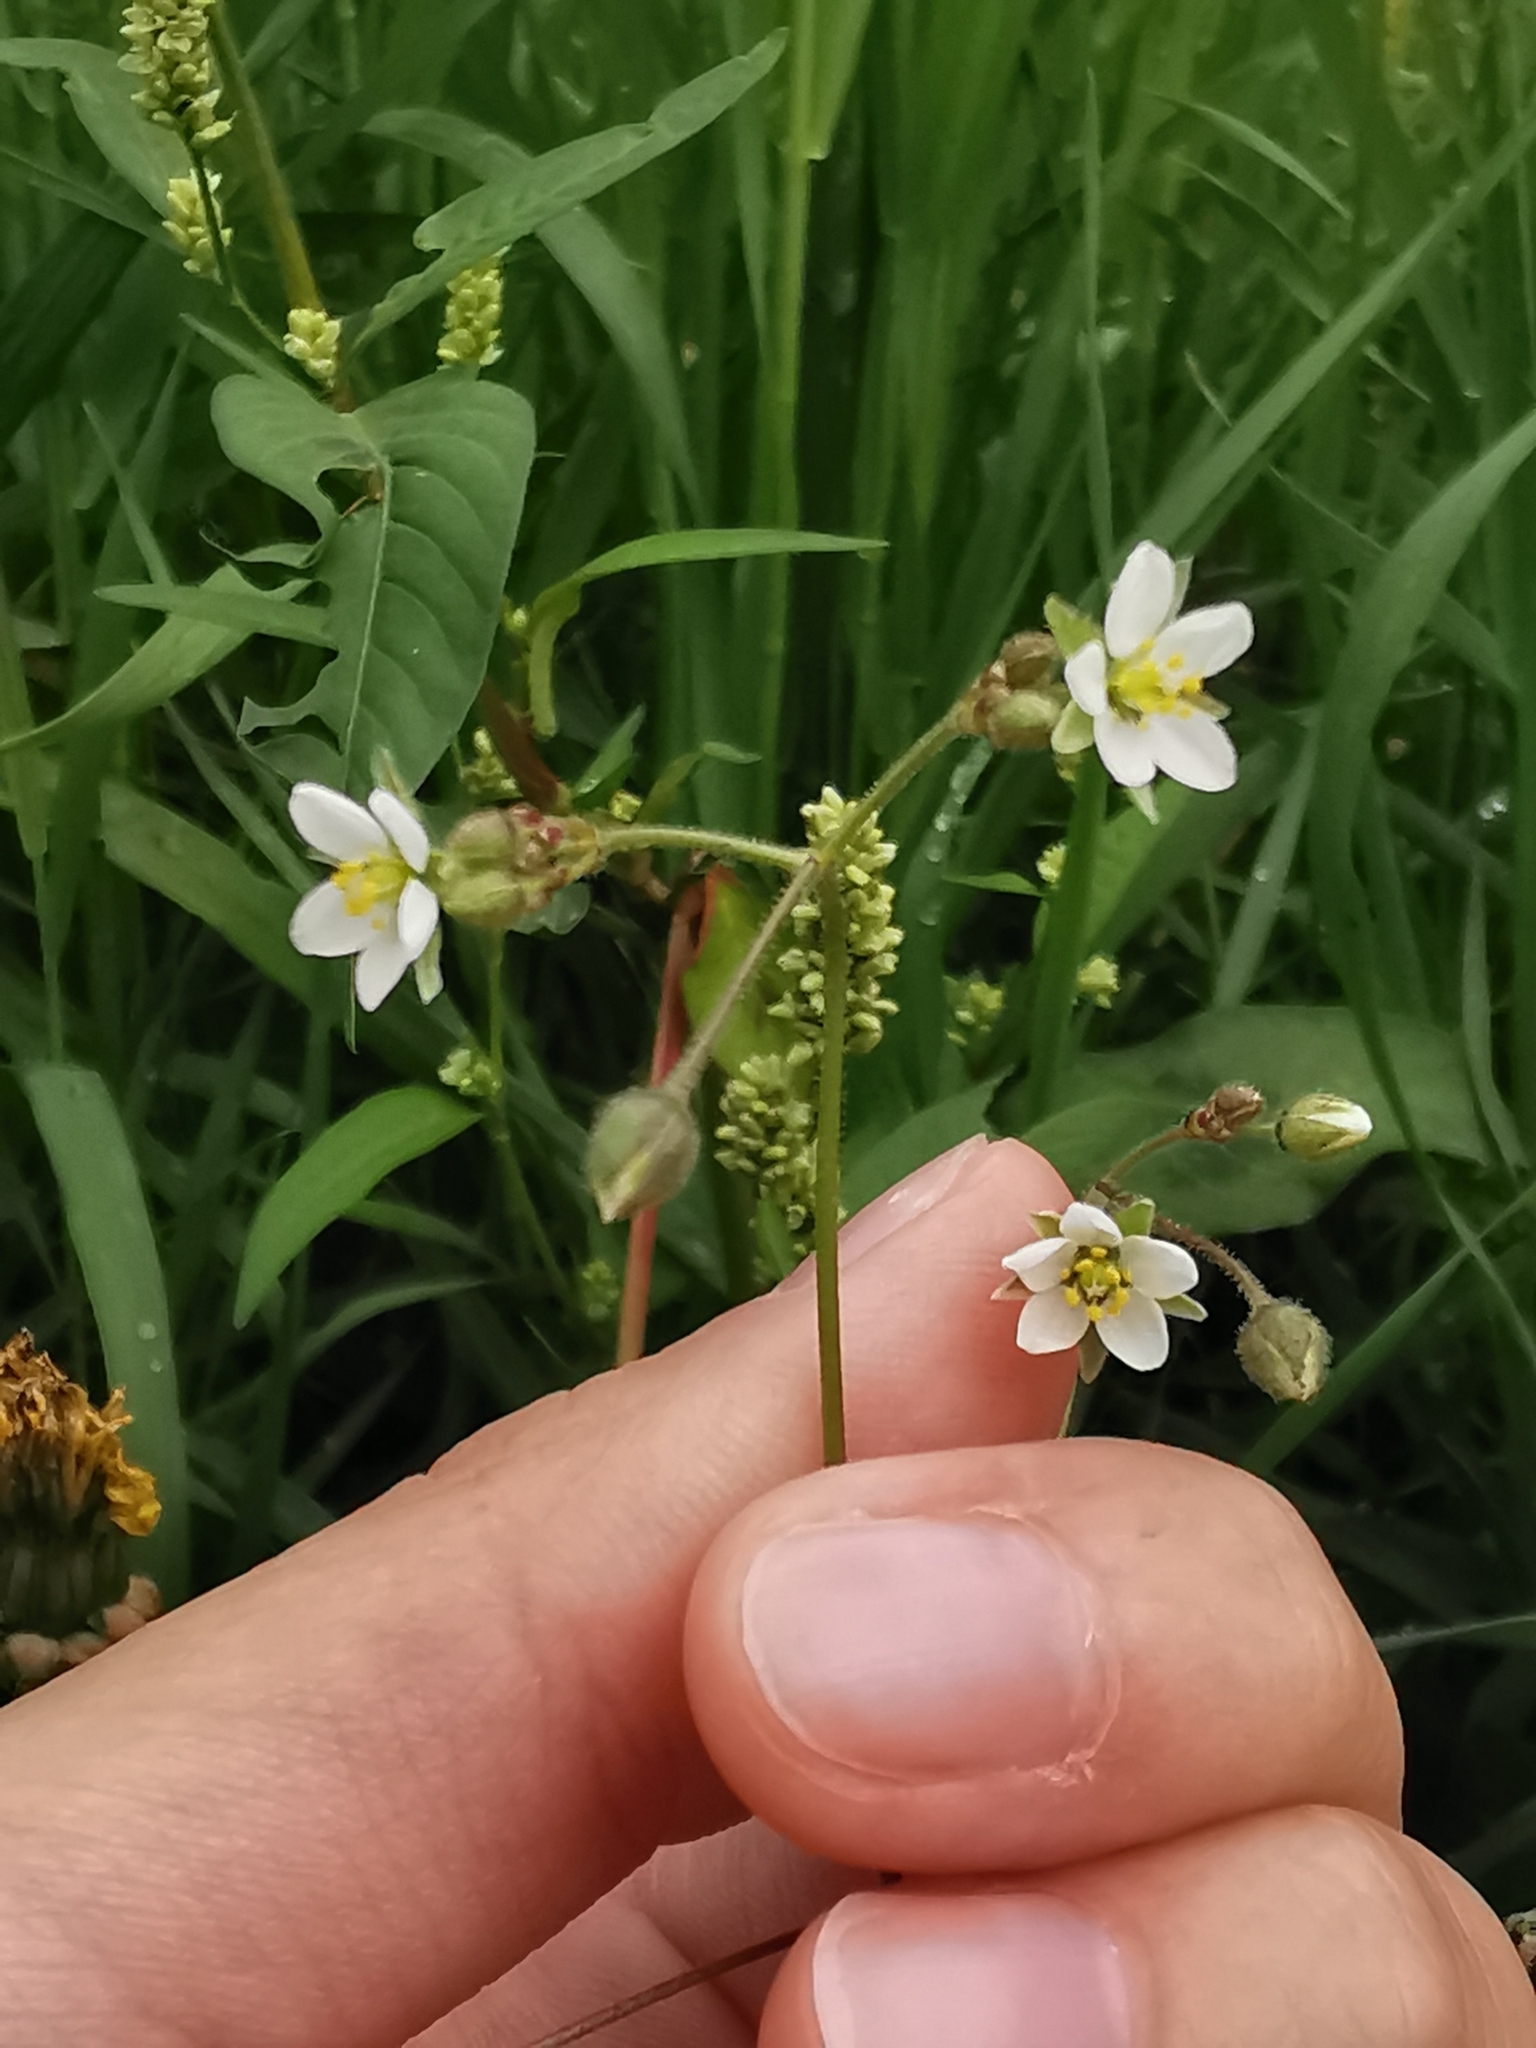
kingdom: Plantae
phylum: Tracheophyta
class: Magnoliopsida
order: Caryophyllales
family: Caryophyllaceae
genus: Spergula
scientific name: Spergula arvensis
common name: Corn spurrey
